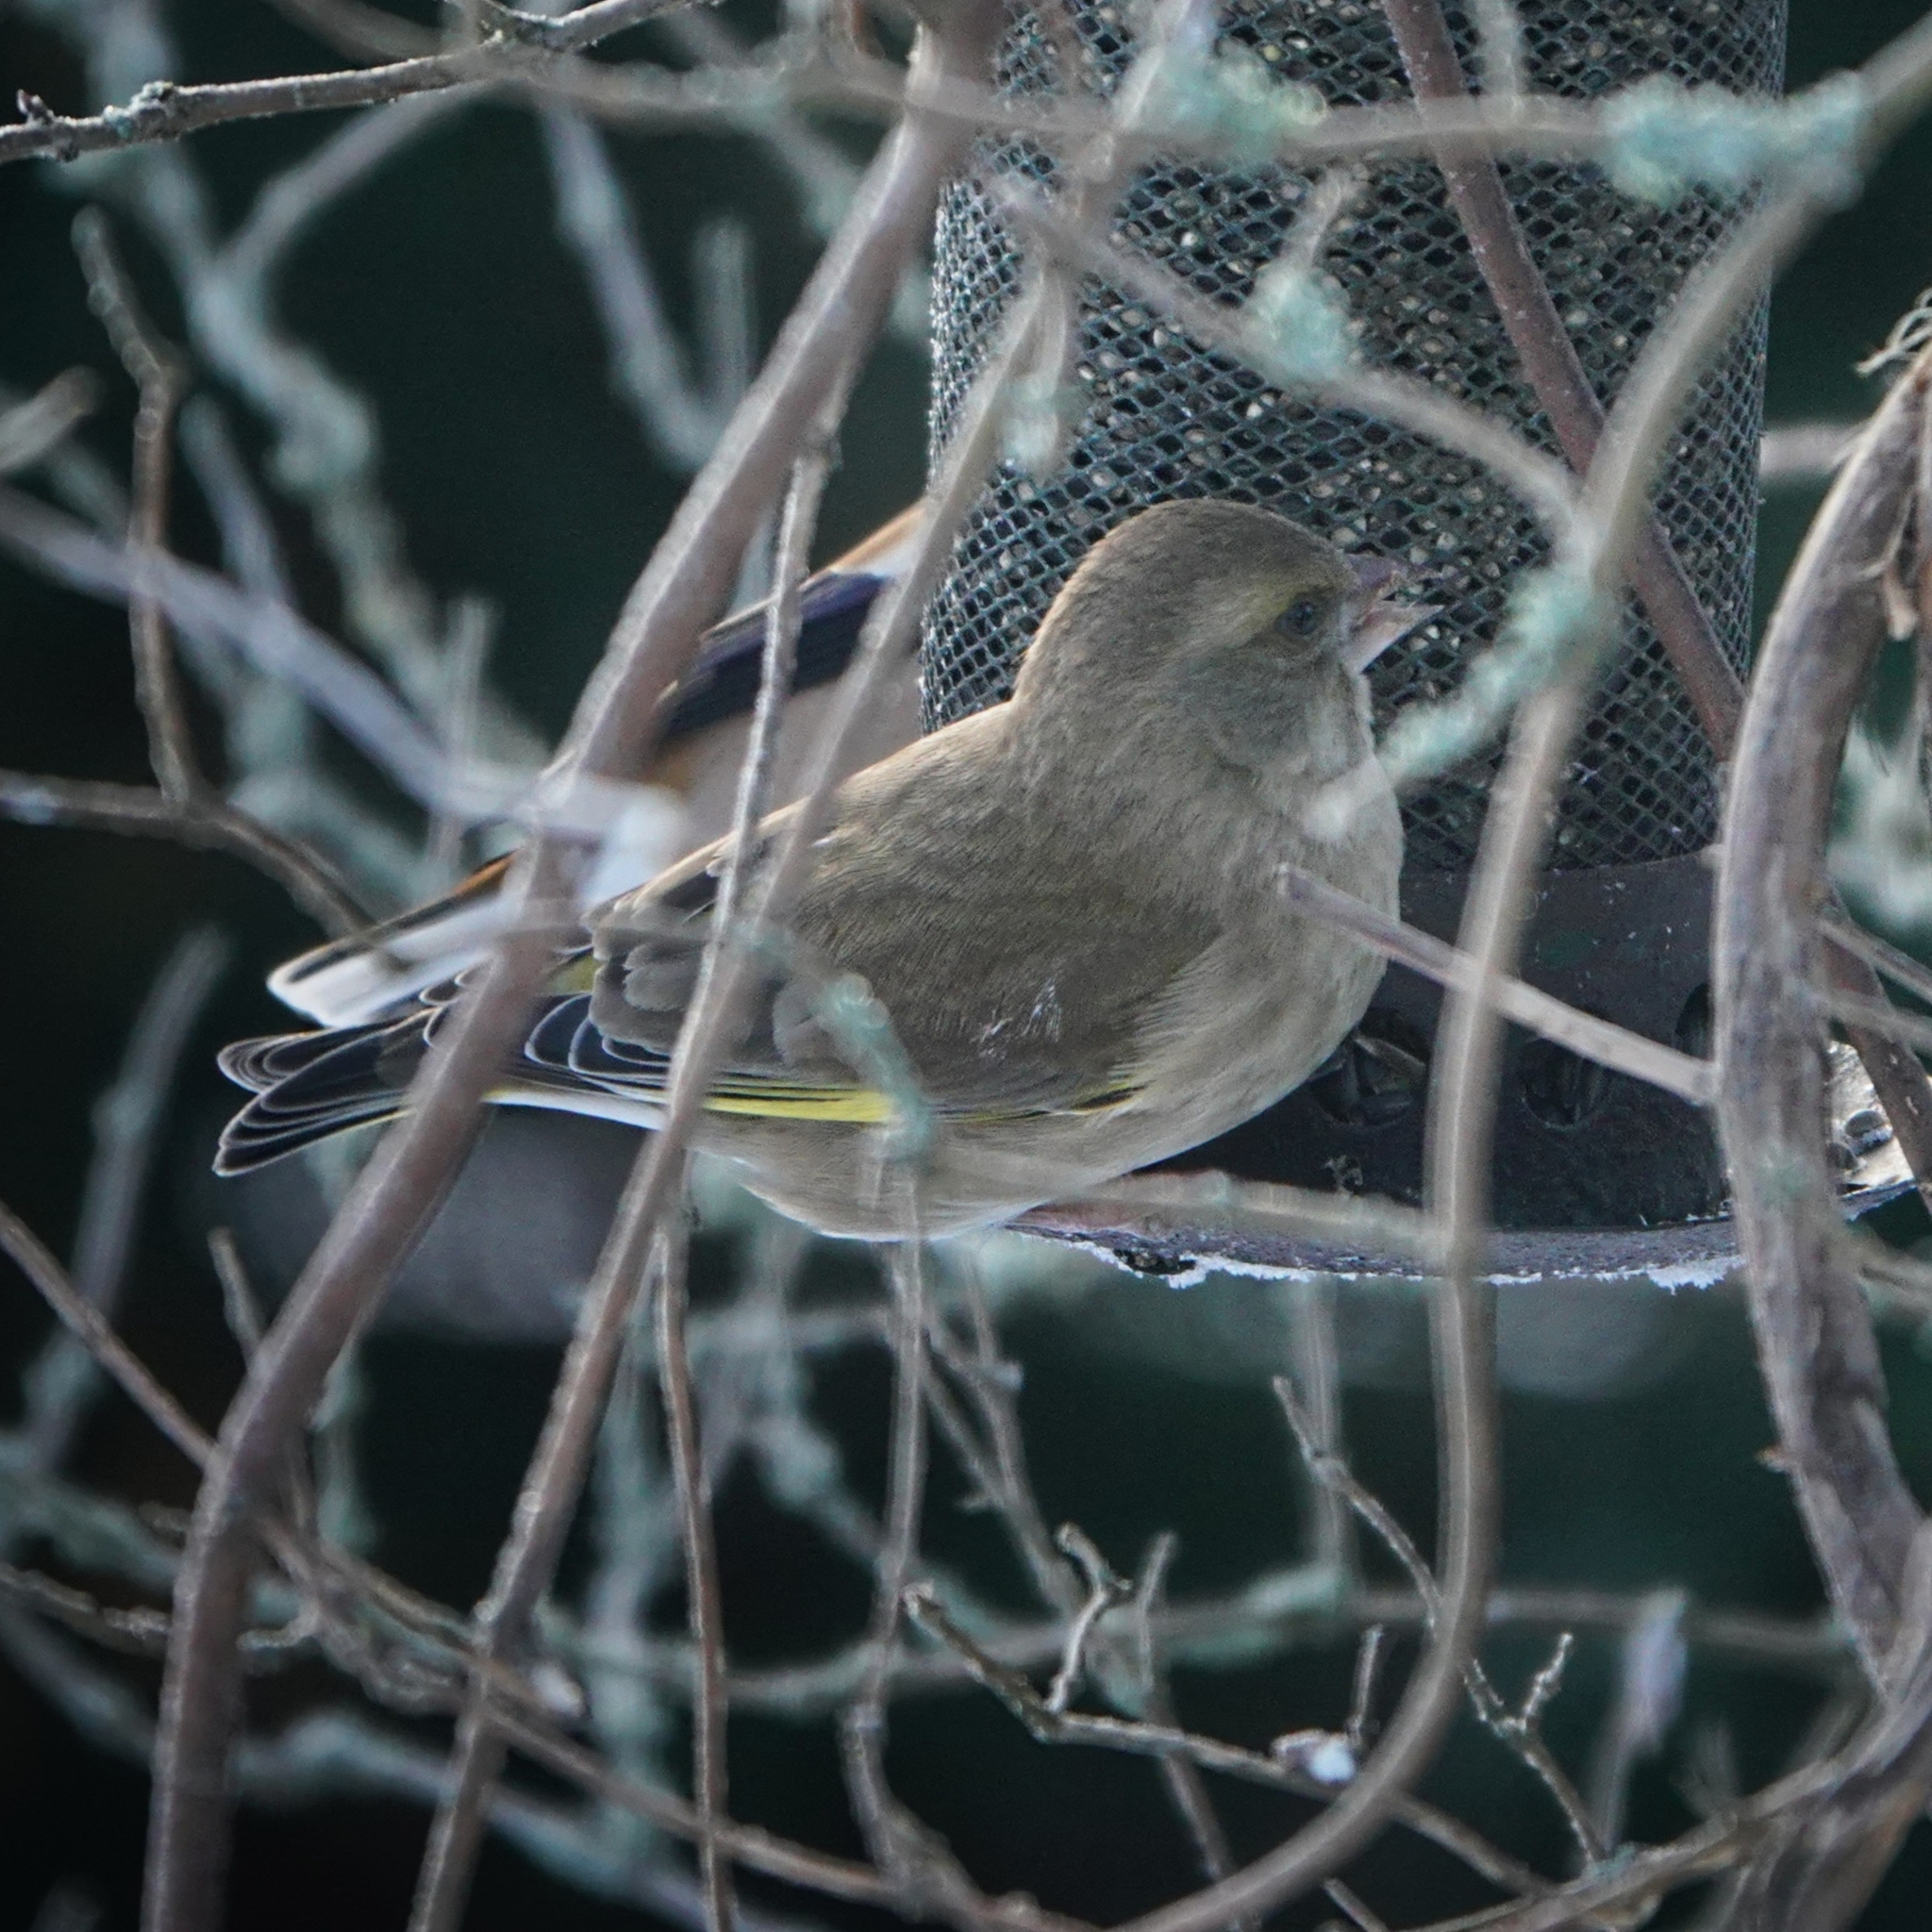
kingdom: Plantae
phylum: Tracheophyta
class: Liliopsida
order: Poales
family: Poaceae
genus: Chloris
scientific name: Chloris chloris
